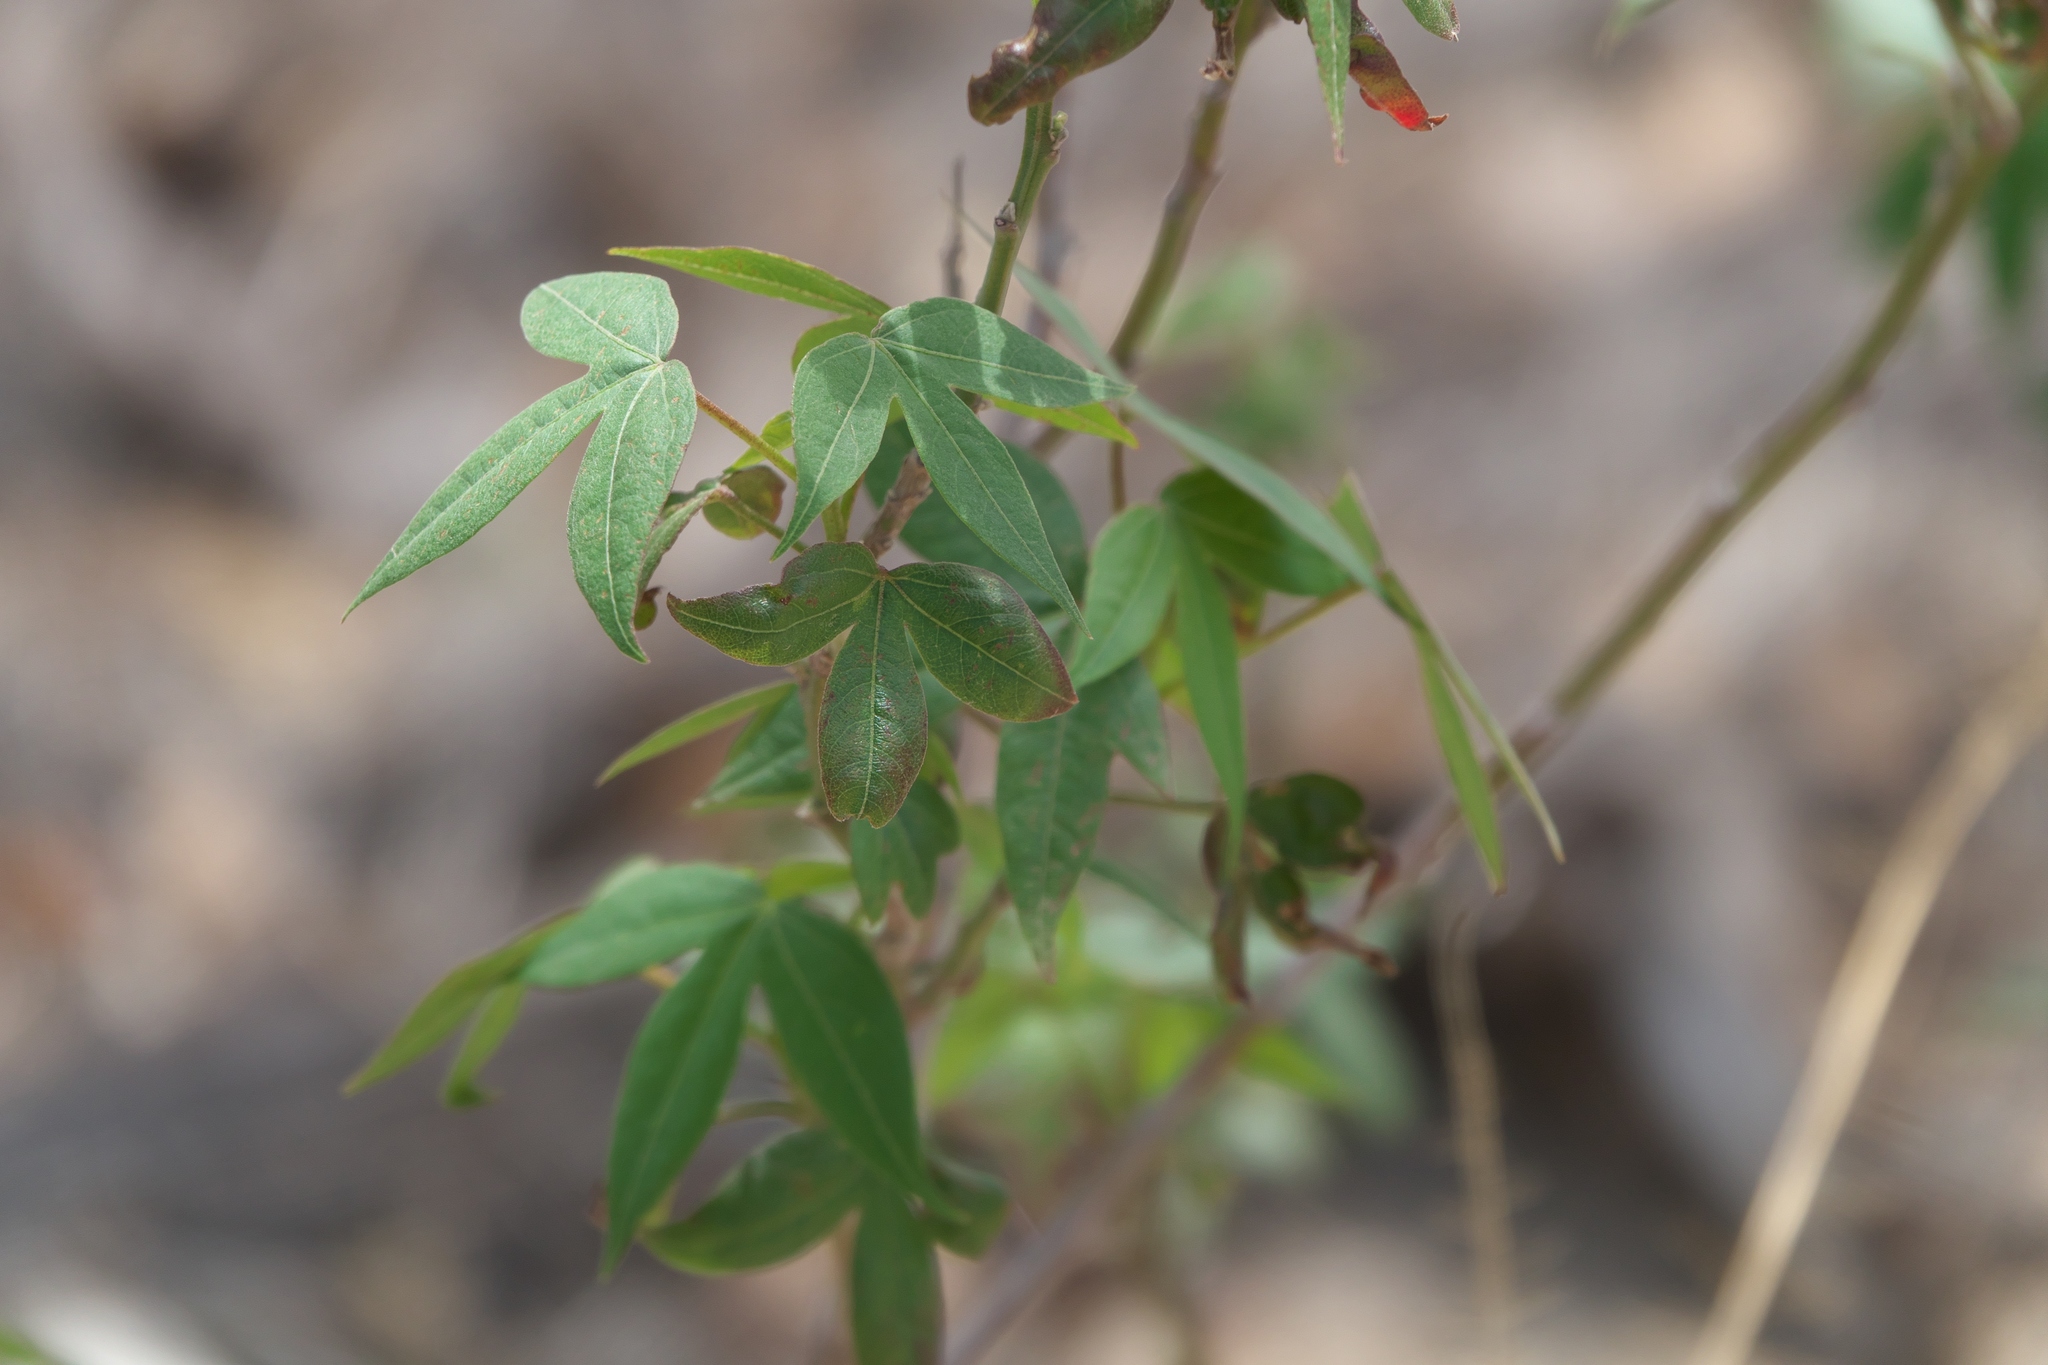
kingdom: Plantae
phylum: Tracheophyta
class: Magnoliopsida
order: Malvales
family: Malvaceae
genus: Gossypium
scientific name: Gossypium thurberi
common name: Desert cotton
